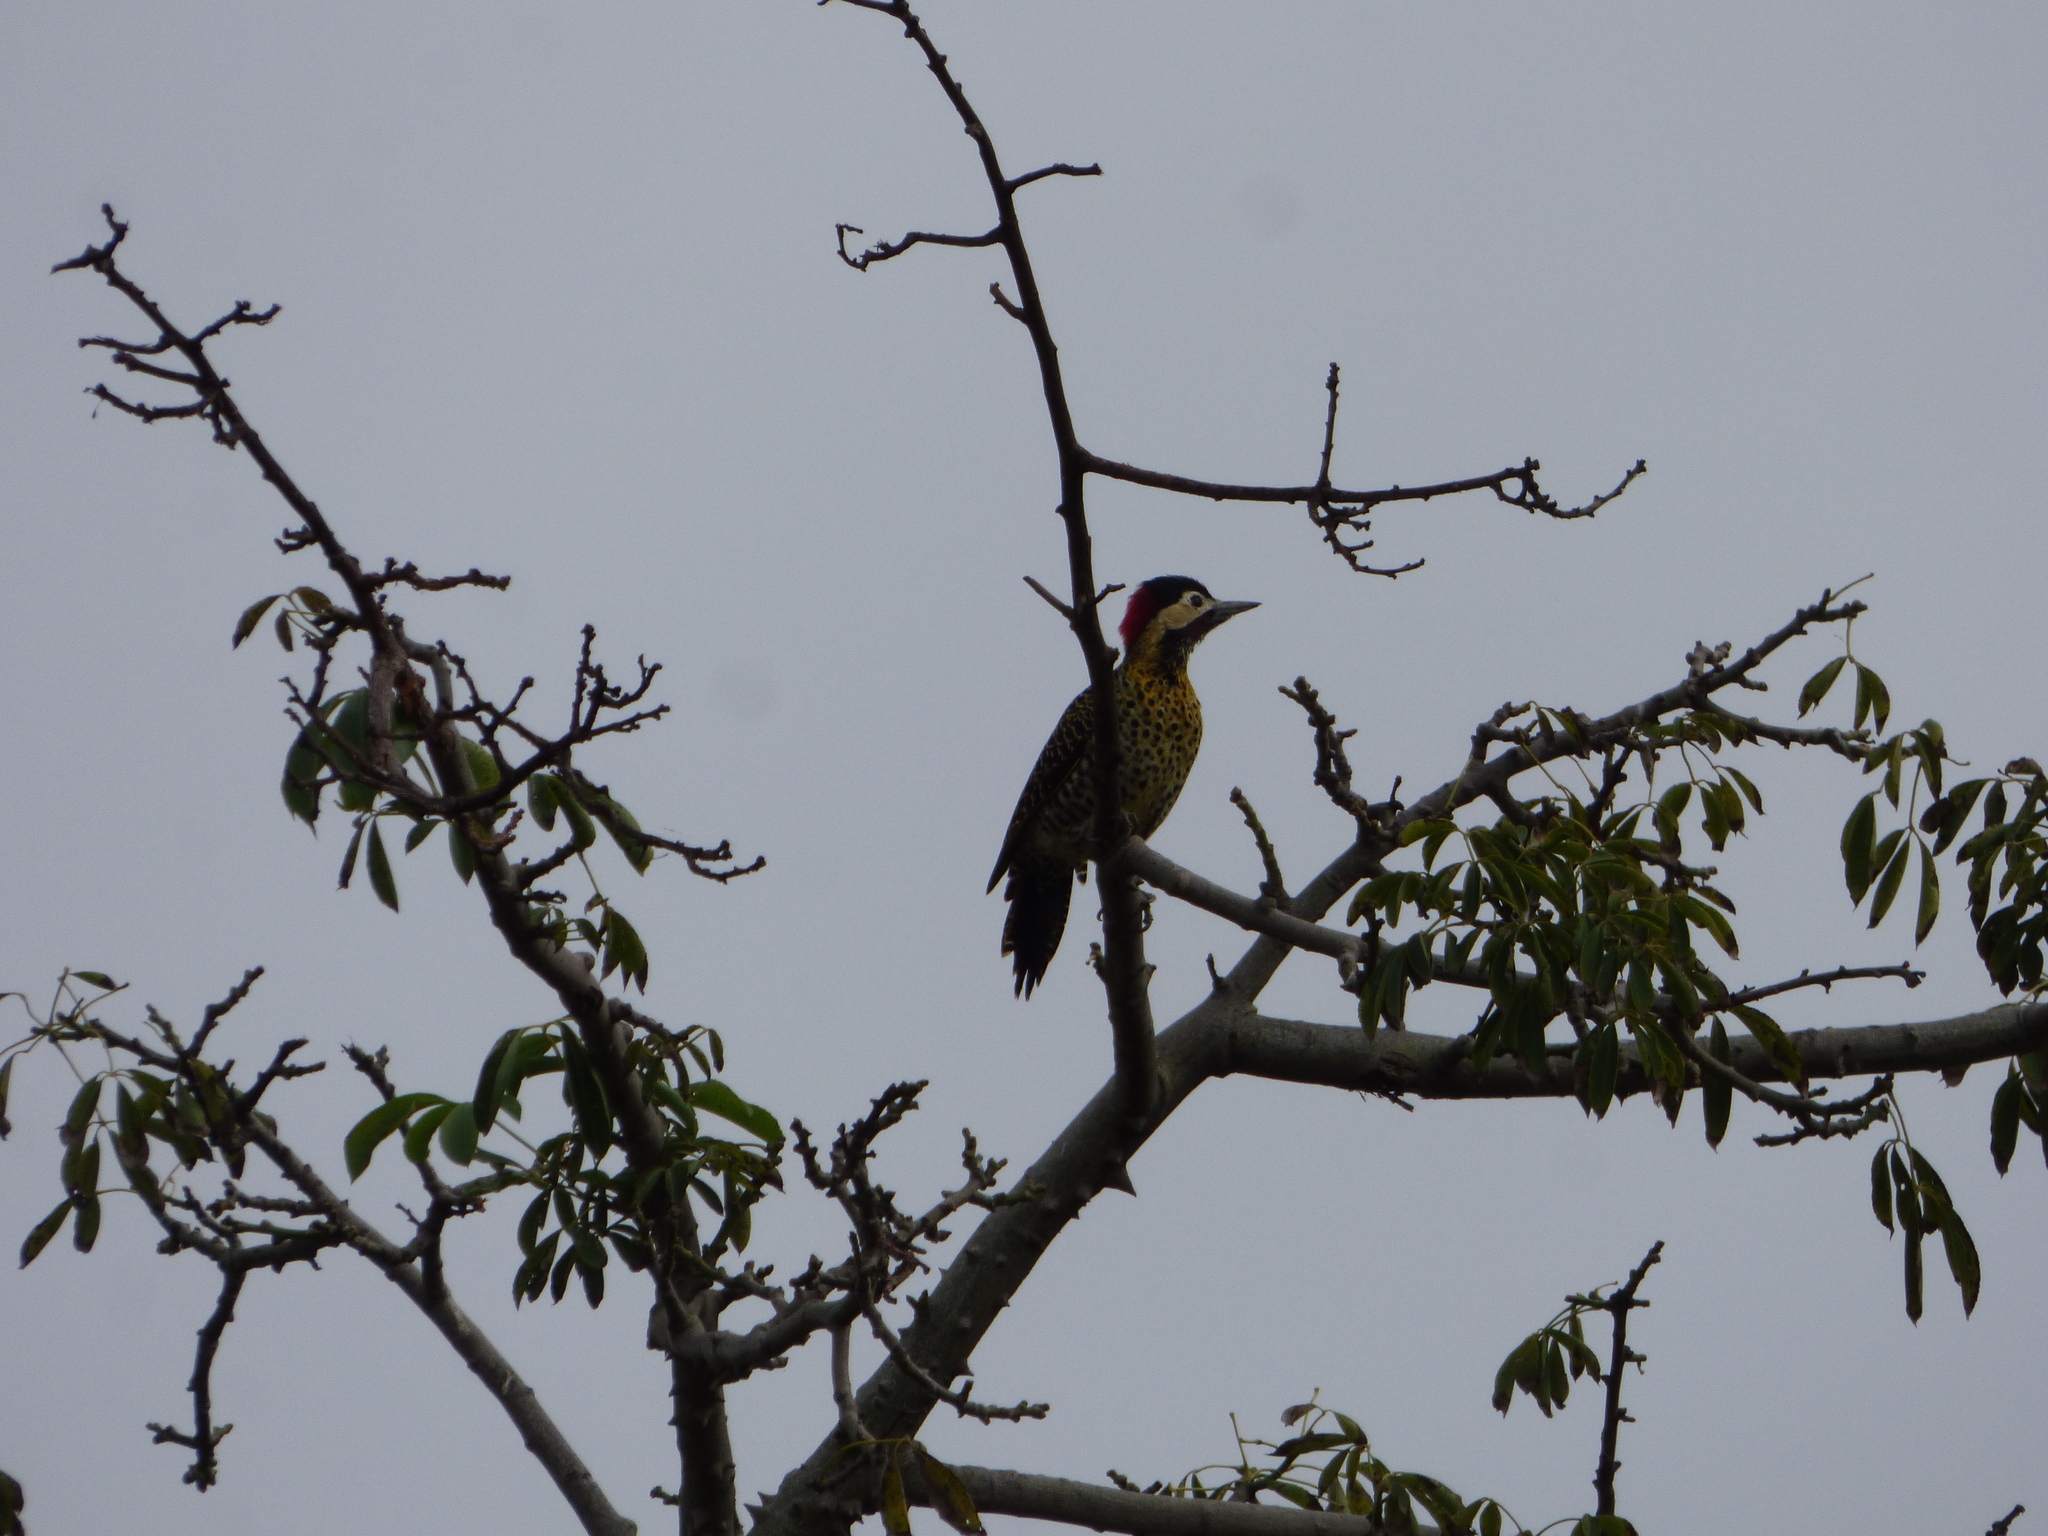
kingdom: Animalia
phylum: Chordata
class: Aves
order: Piciformes
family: Picidae
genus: Colaptes
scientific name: Colaptes melanochloros
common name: Green-barred woodpecker
